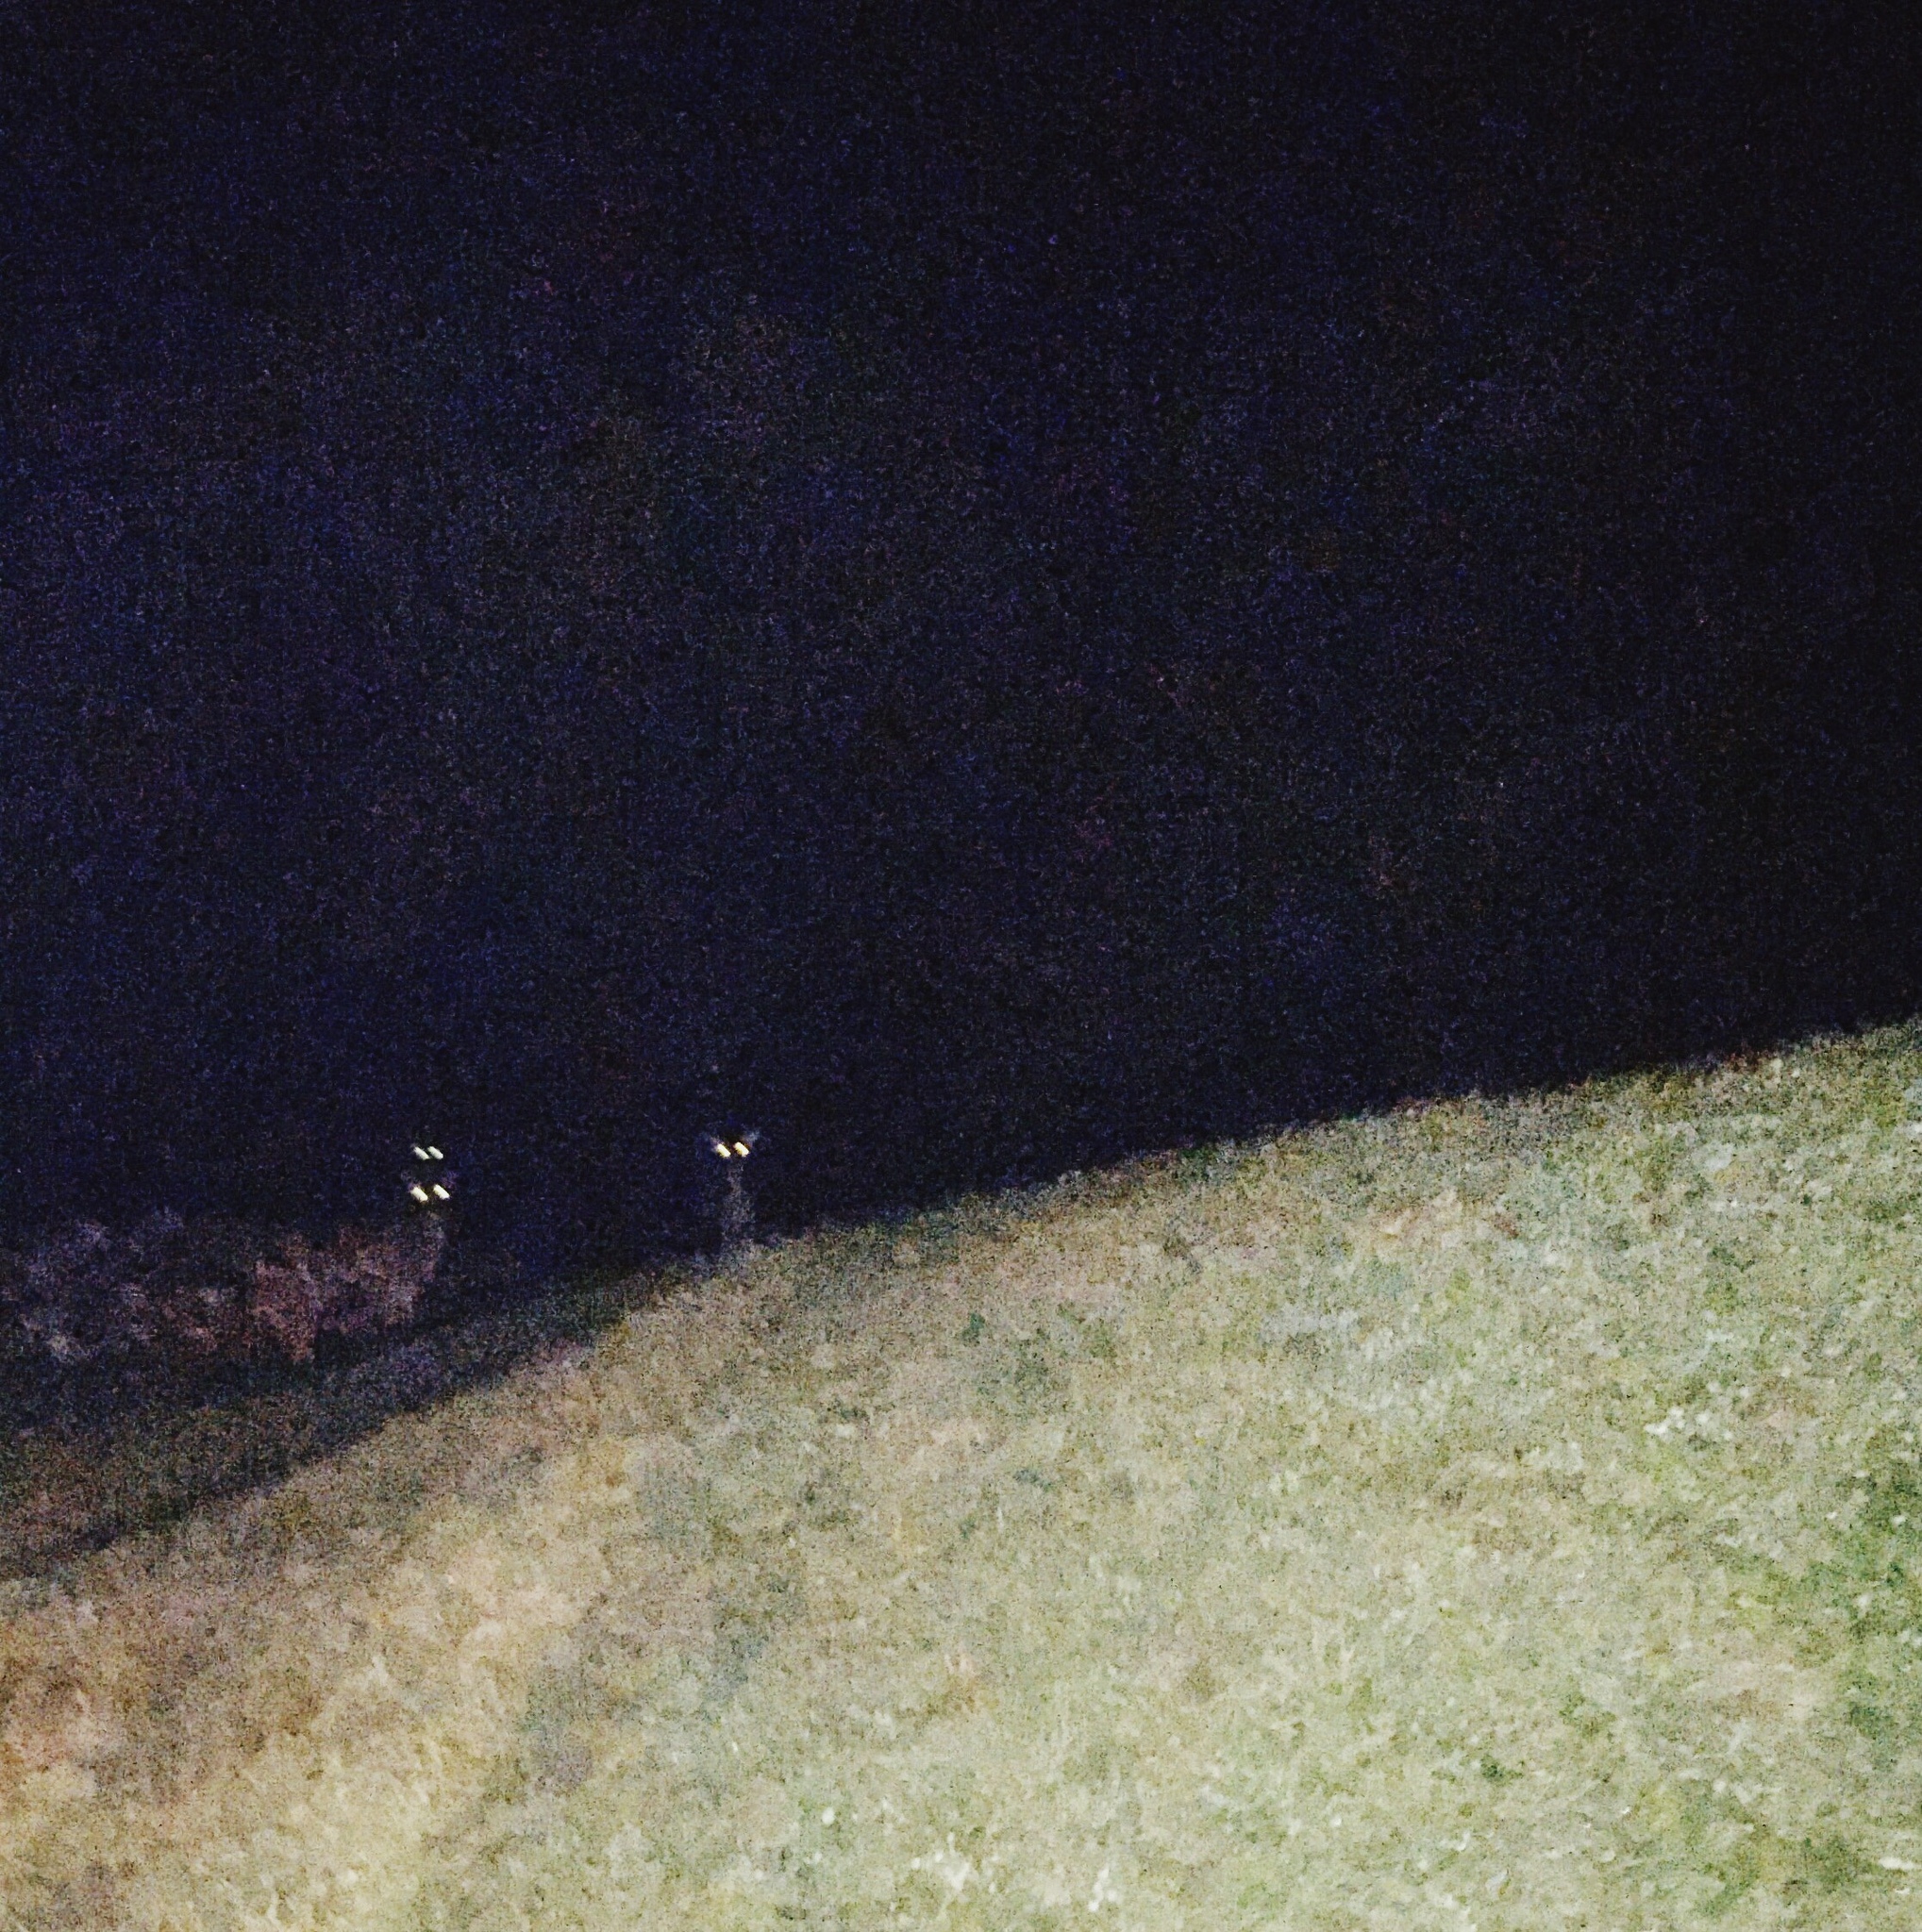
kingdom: Animalia
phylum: Chordata
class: Mammalia
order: Artiodactyla
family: Cervidae
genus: Cervus
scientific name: Cervus elaphus
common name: Red deer
